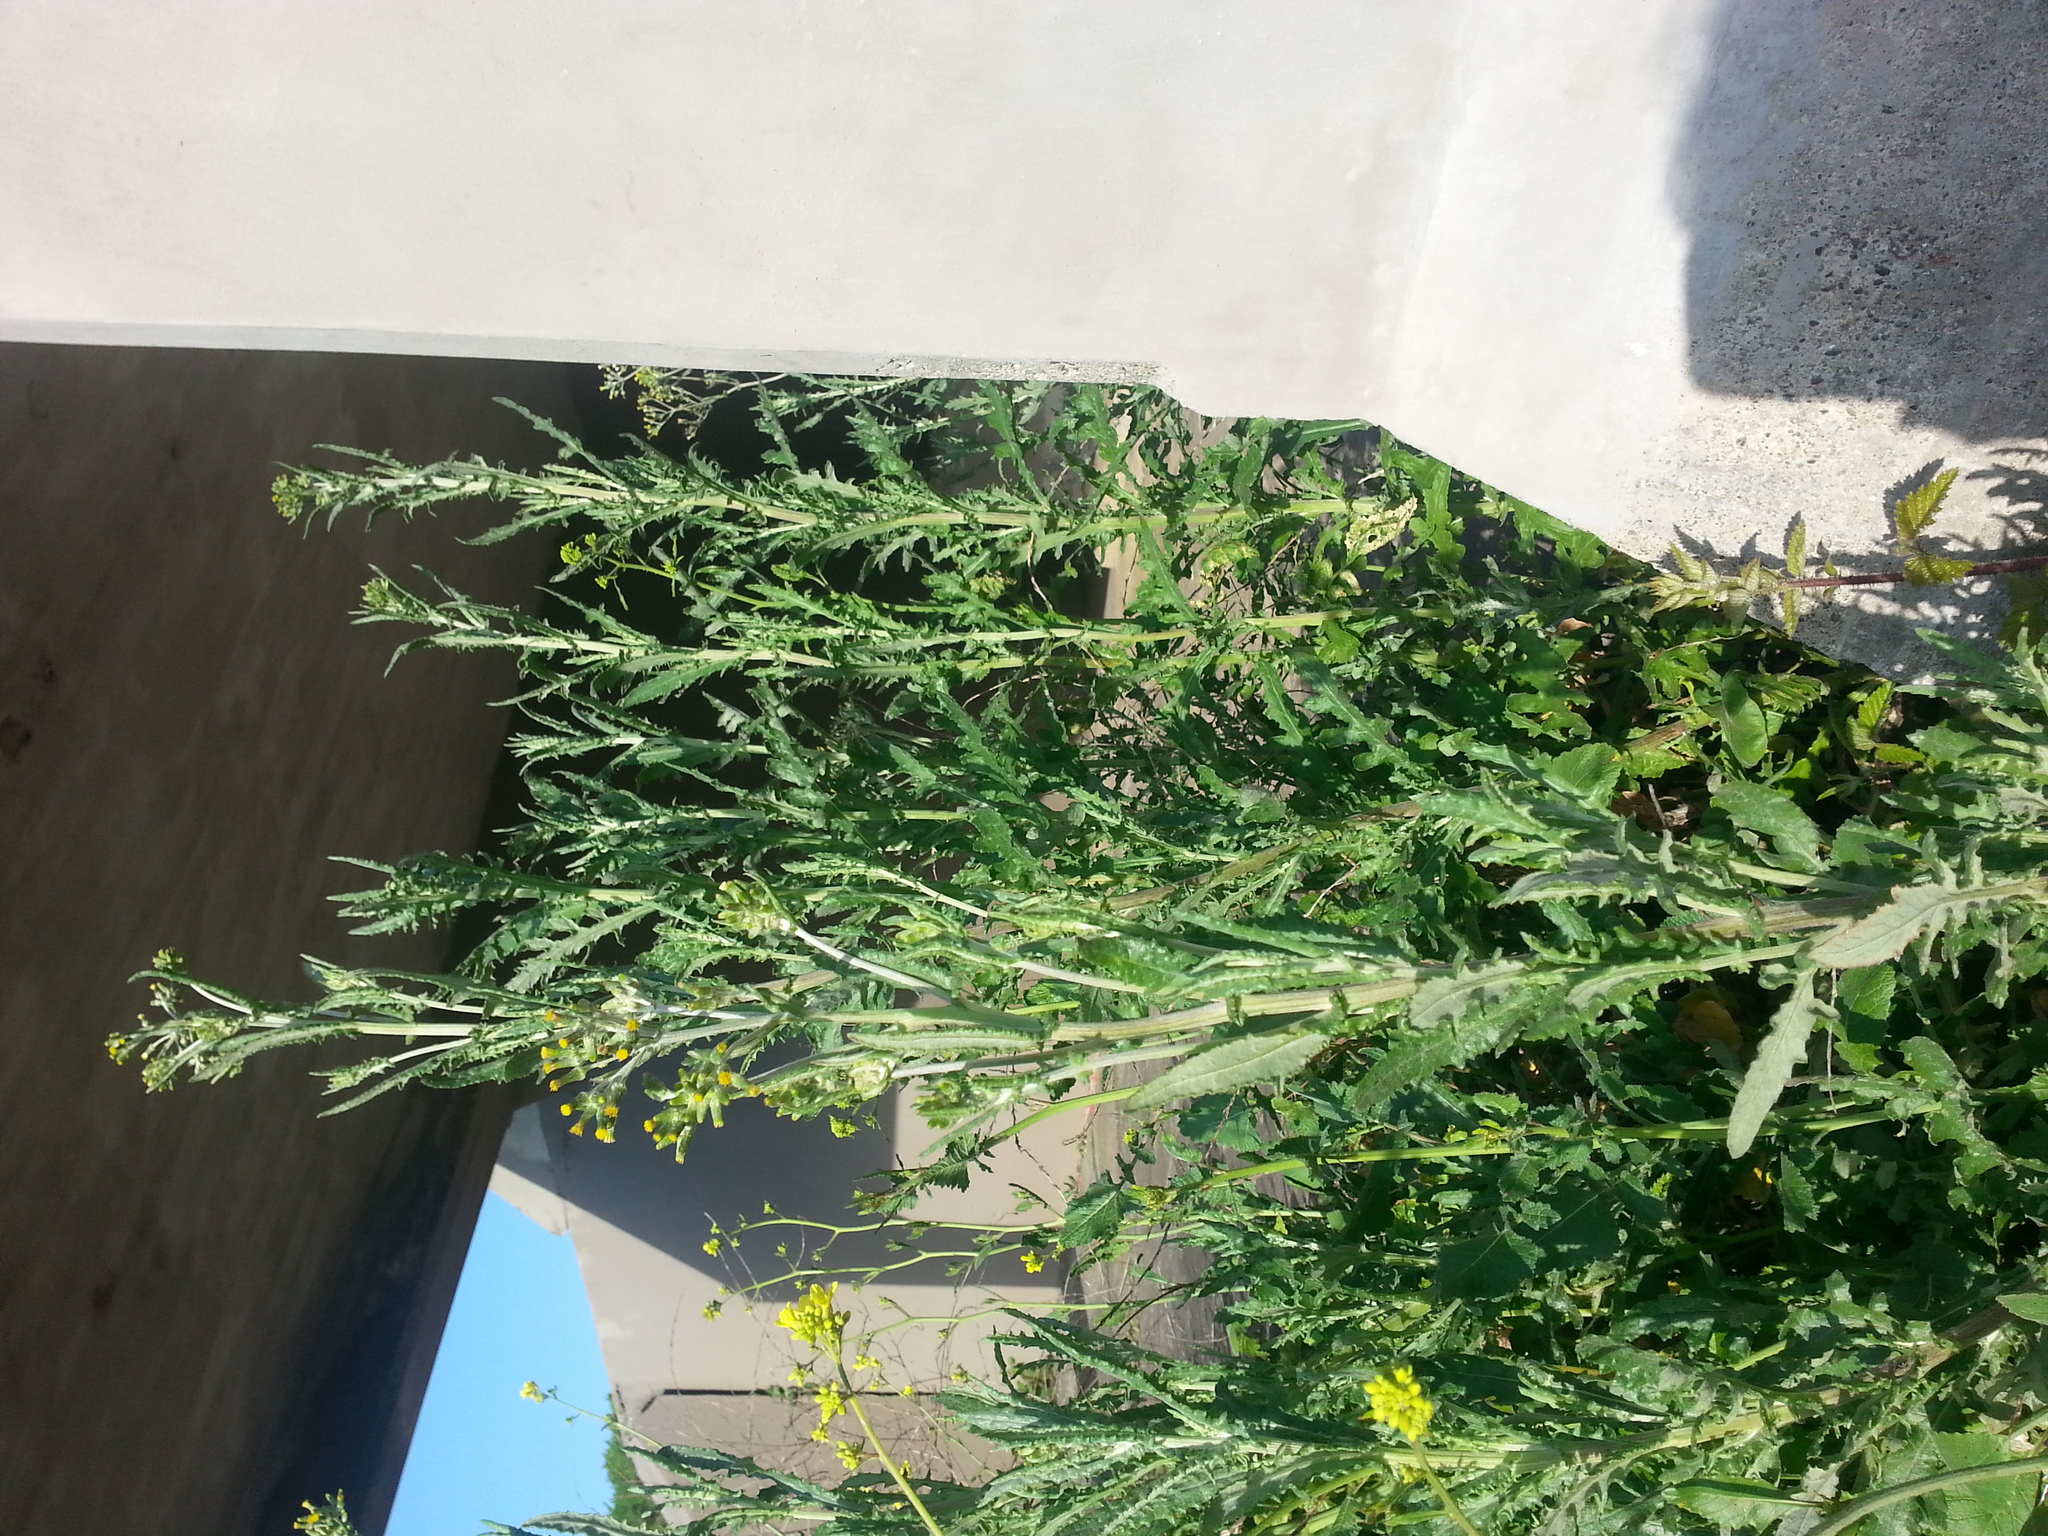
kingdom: Plantae
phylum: Tracheophyta
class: Magnoliopsida
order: Asterales
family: Asteraceae
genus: Senecio
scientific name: Senecio glomeratus
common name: Cutleaf burnweed
